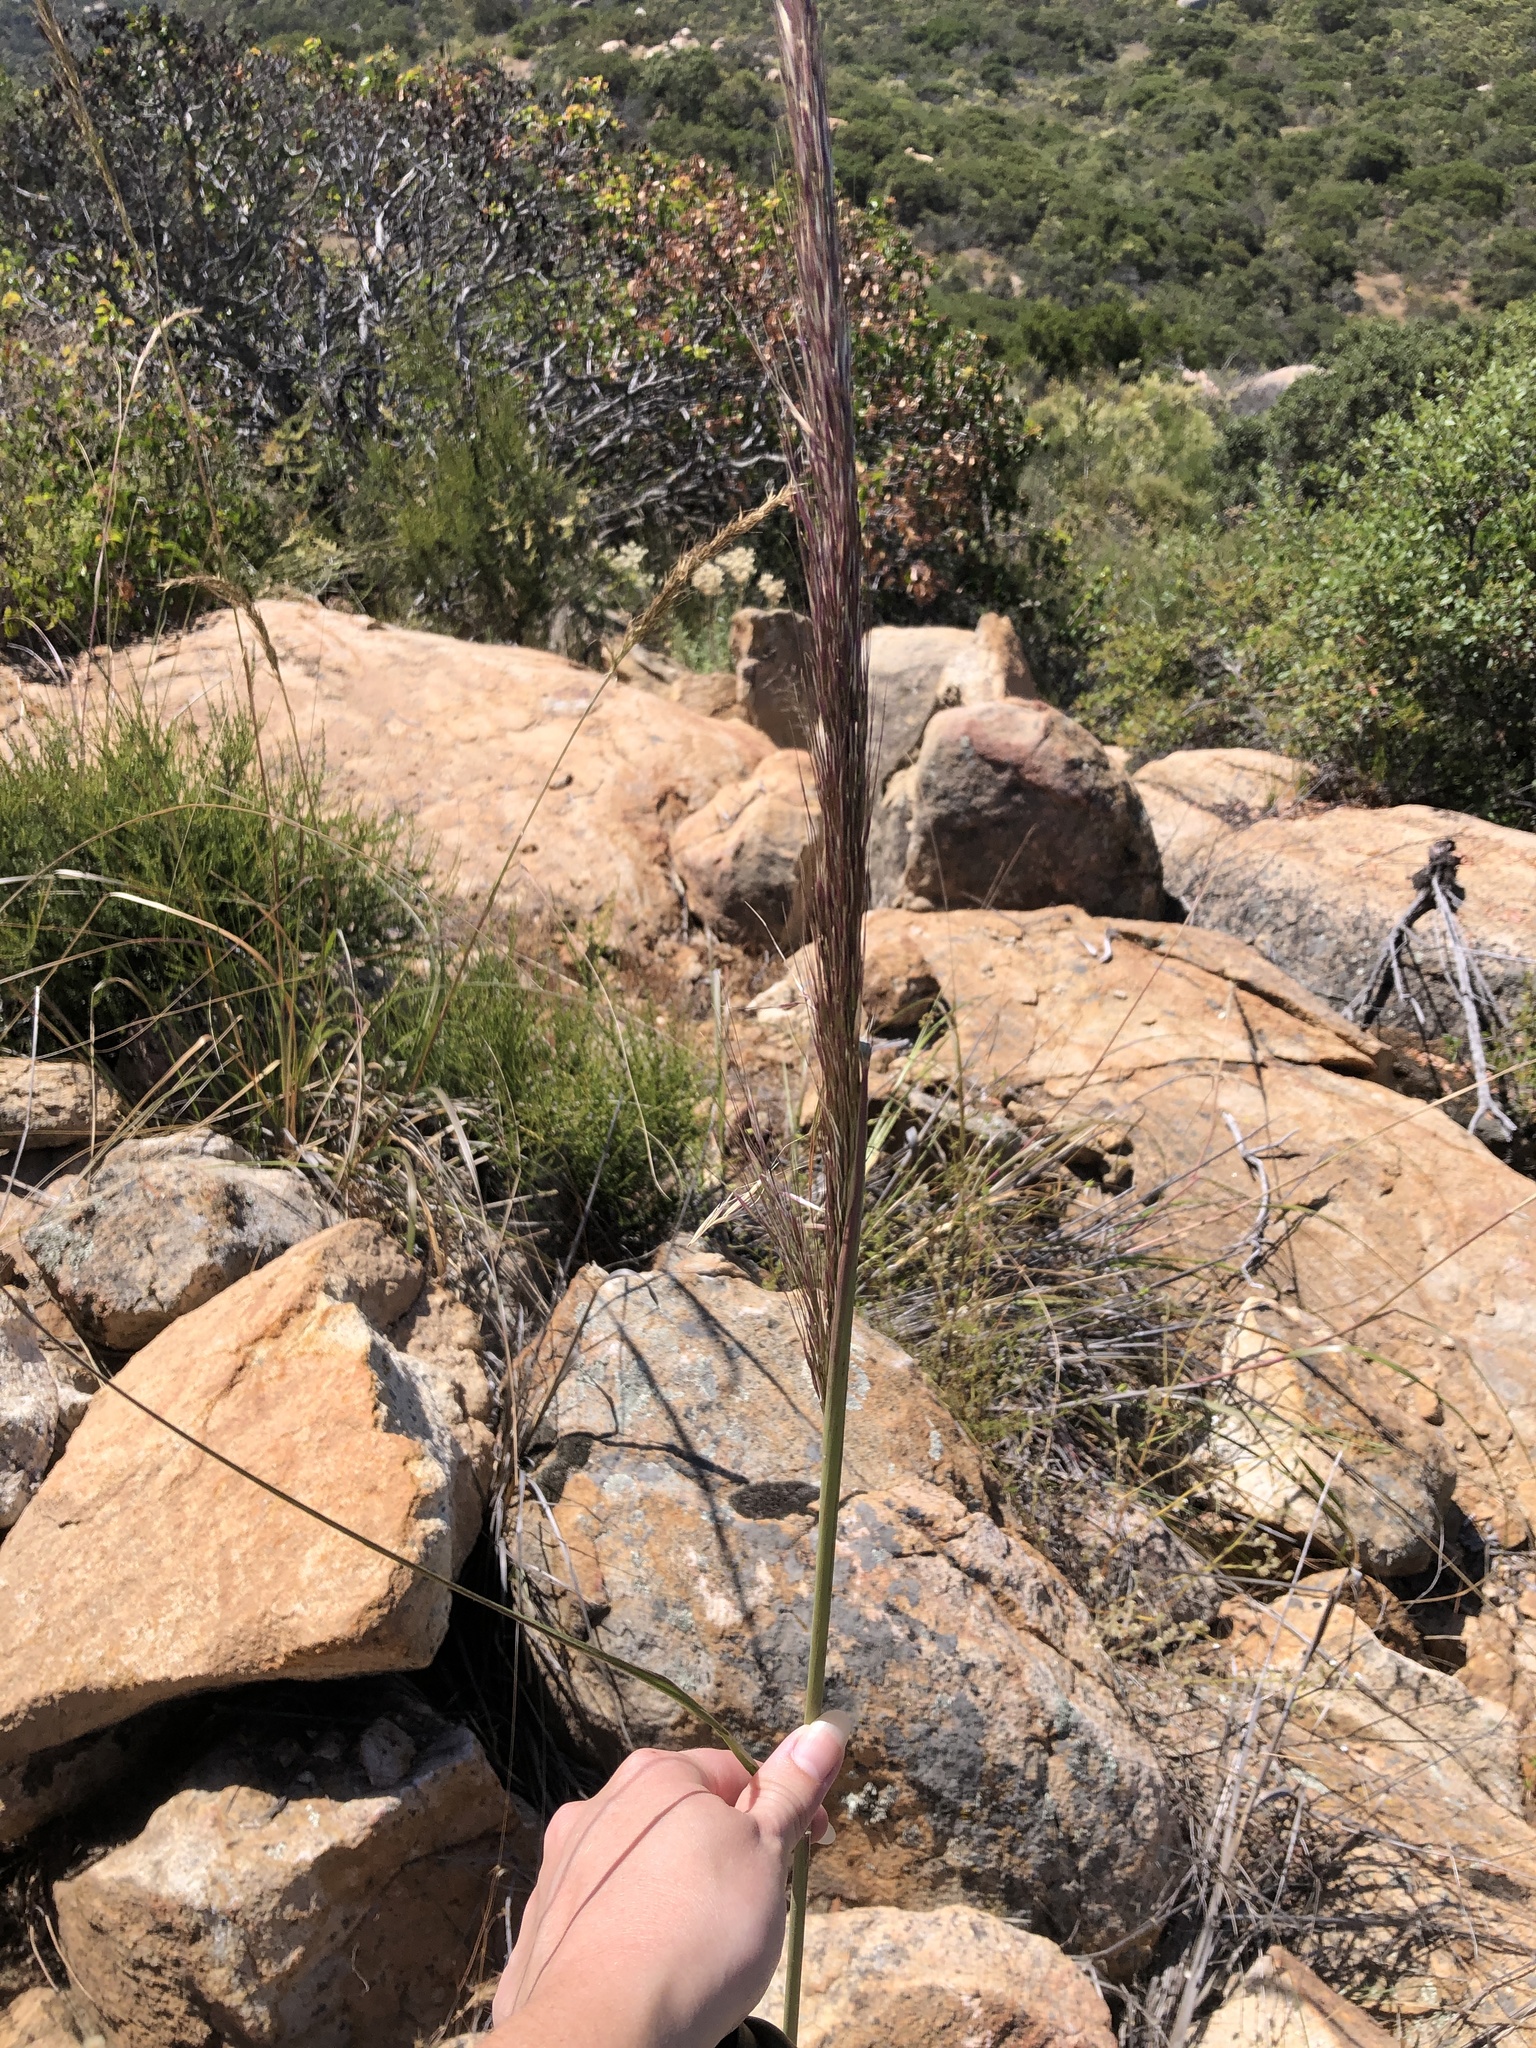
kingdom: Plantae
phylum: Tracheophyta
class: Liliopsida
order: Poales
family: Poaceae
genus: Eriocoma
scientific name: Eriocoma coronata
